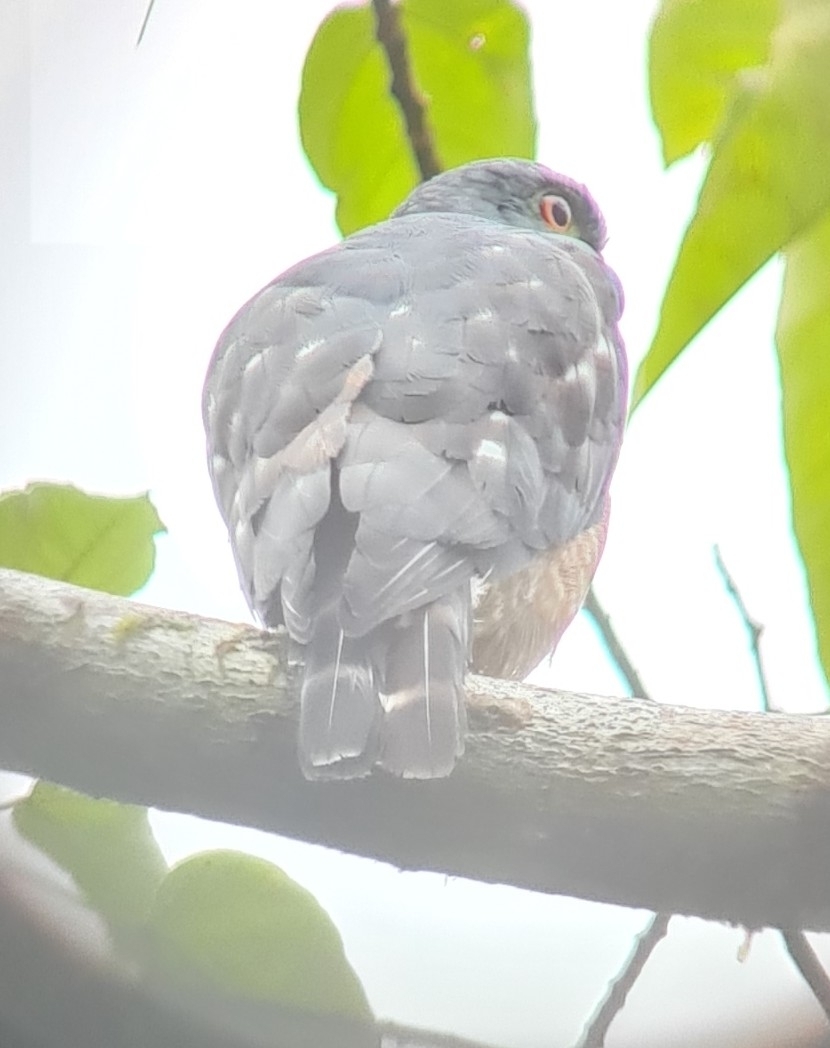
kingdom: Animalia
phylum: Chordata
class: Aves
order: Accipitriformes
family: Accipitridae
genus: Harpagus
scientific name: Harpagus bidentatus
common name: Double-toothed kite
